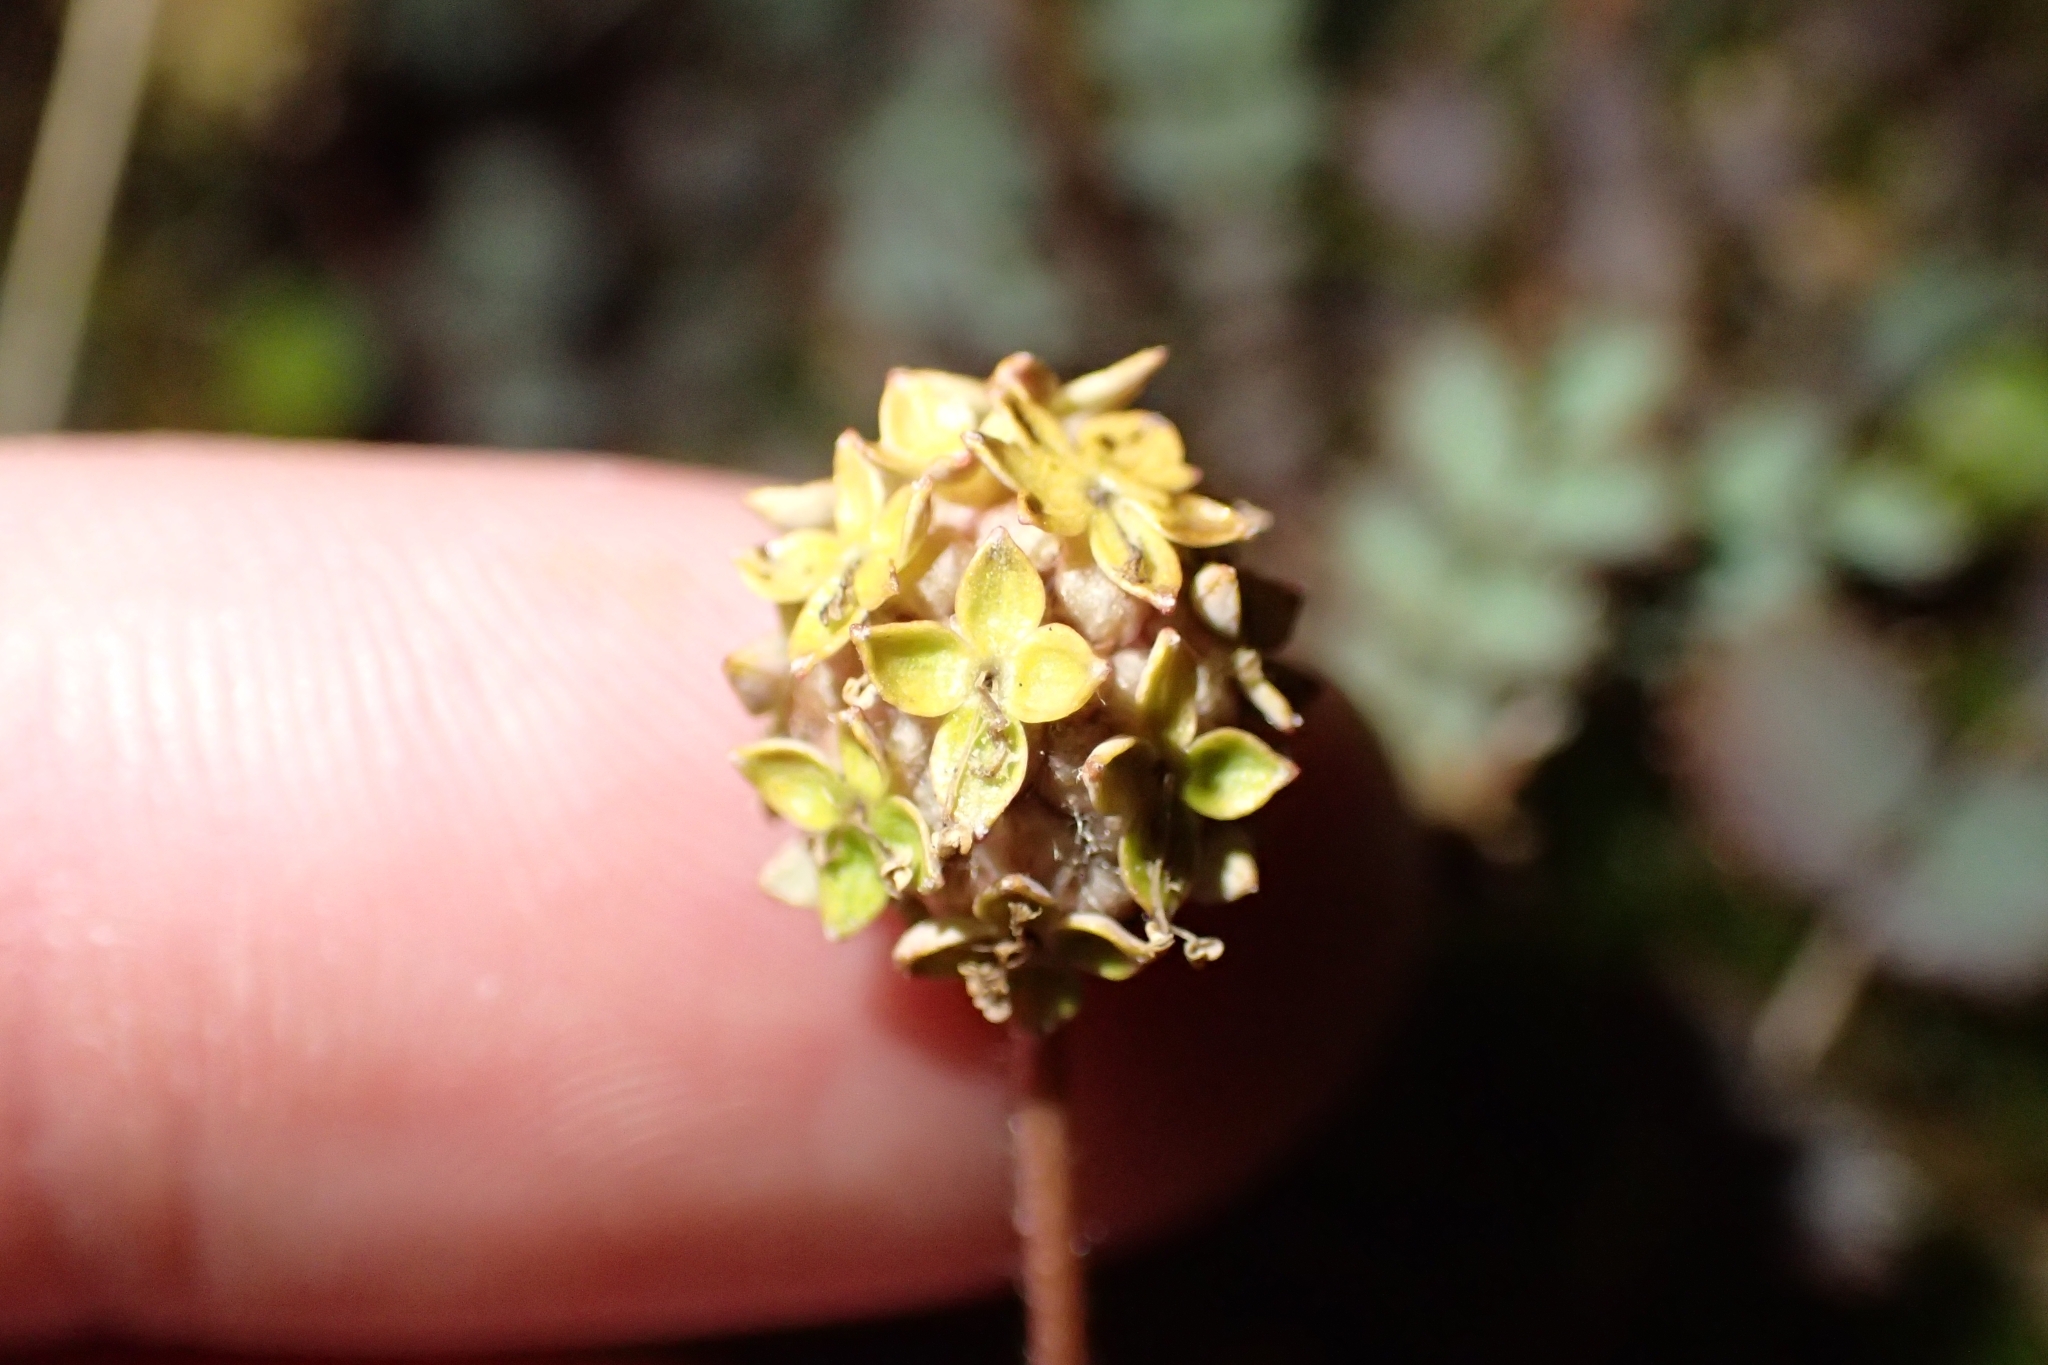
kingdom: Plantae
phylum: Tracheophyta
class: Magnoliopsida
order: Rosales
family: Rosaceae
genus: Acaena
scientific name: Acaena inermis
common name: Spineless acaena
